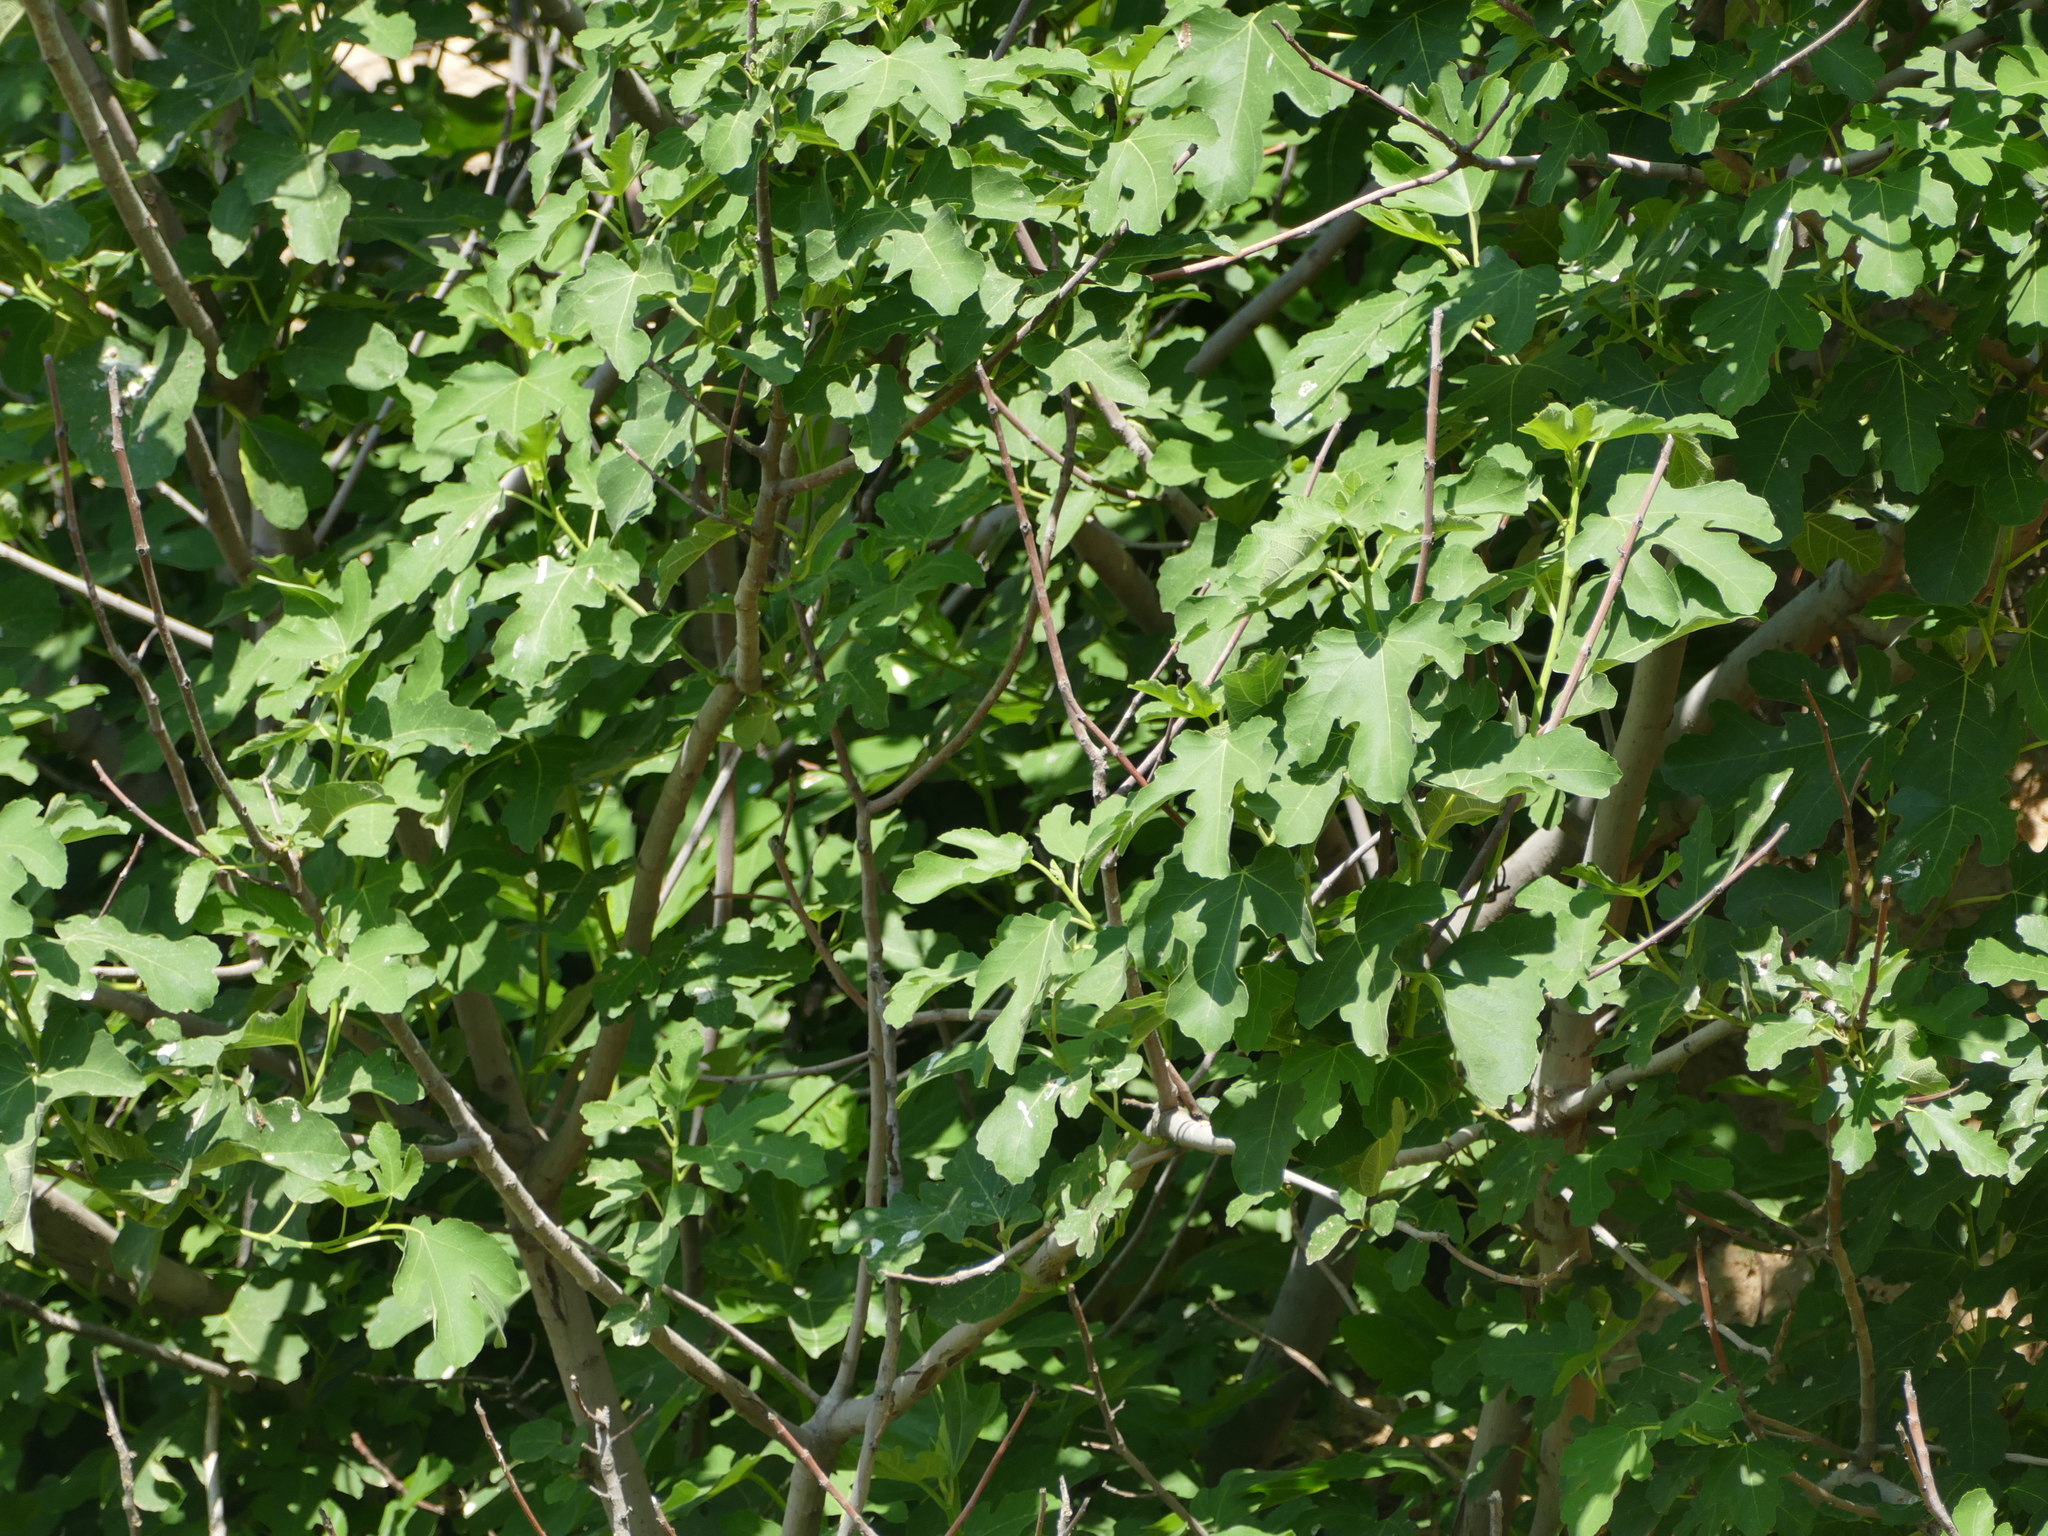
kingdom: Plantae
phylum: Tracheophyta
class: Magnoliopsida
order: Rosales
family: Moraceae
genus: Ficus
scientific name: Ficus carica
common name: Fig
